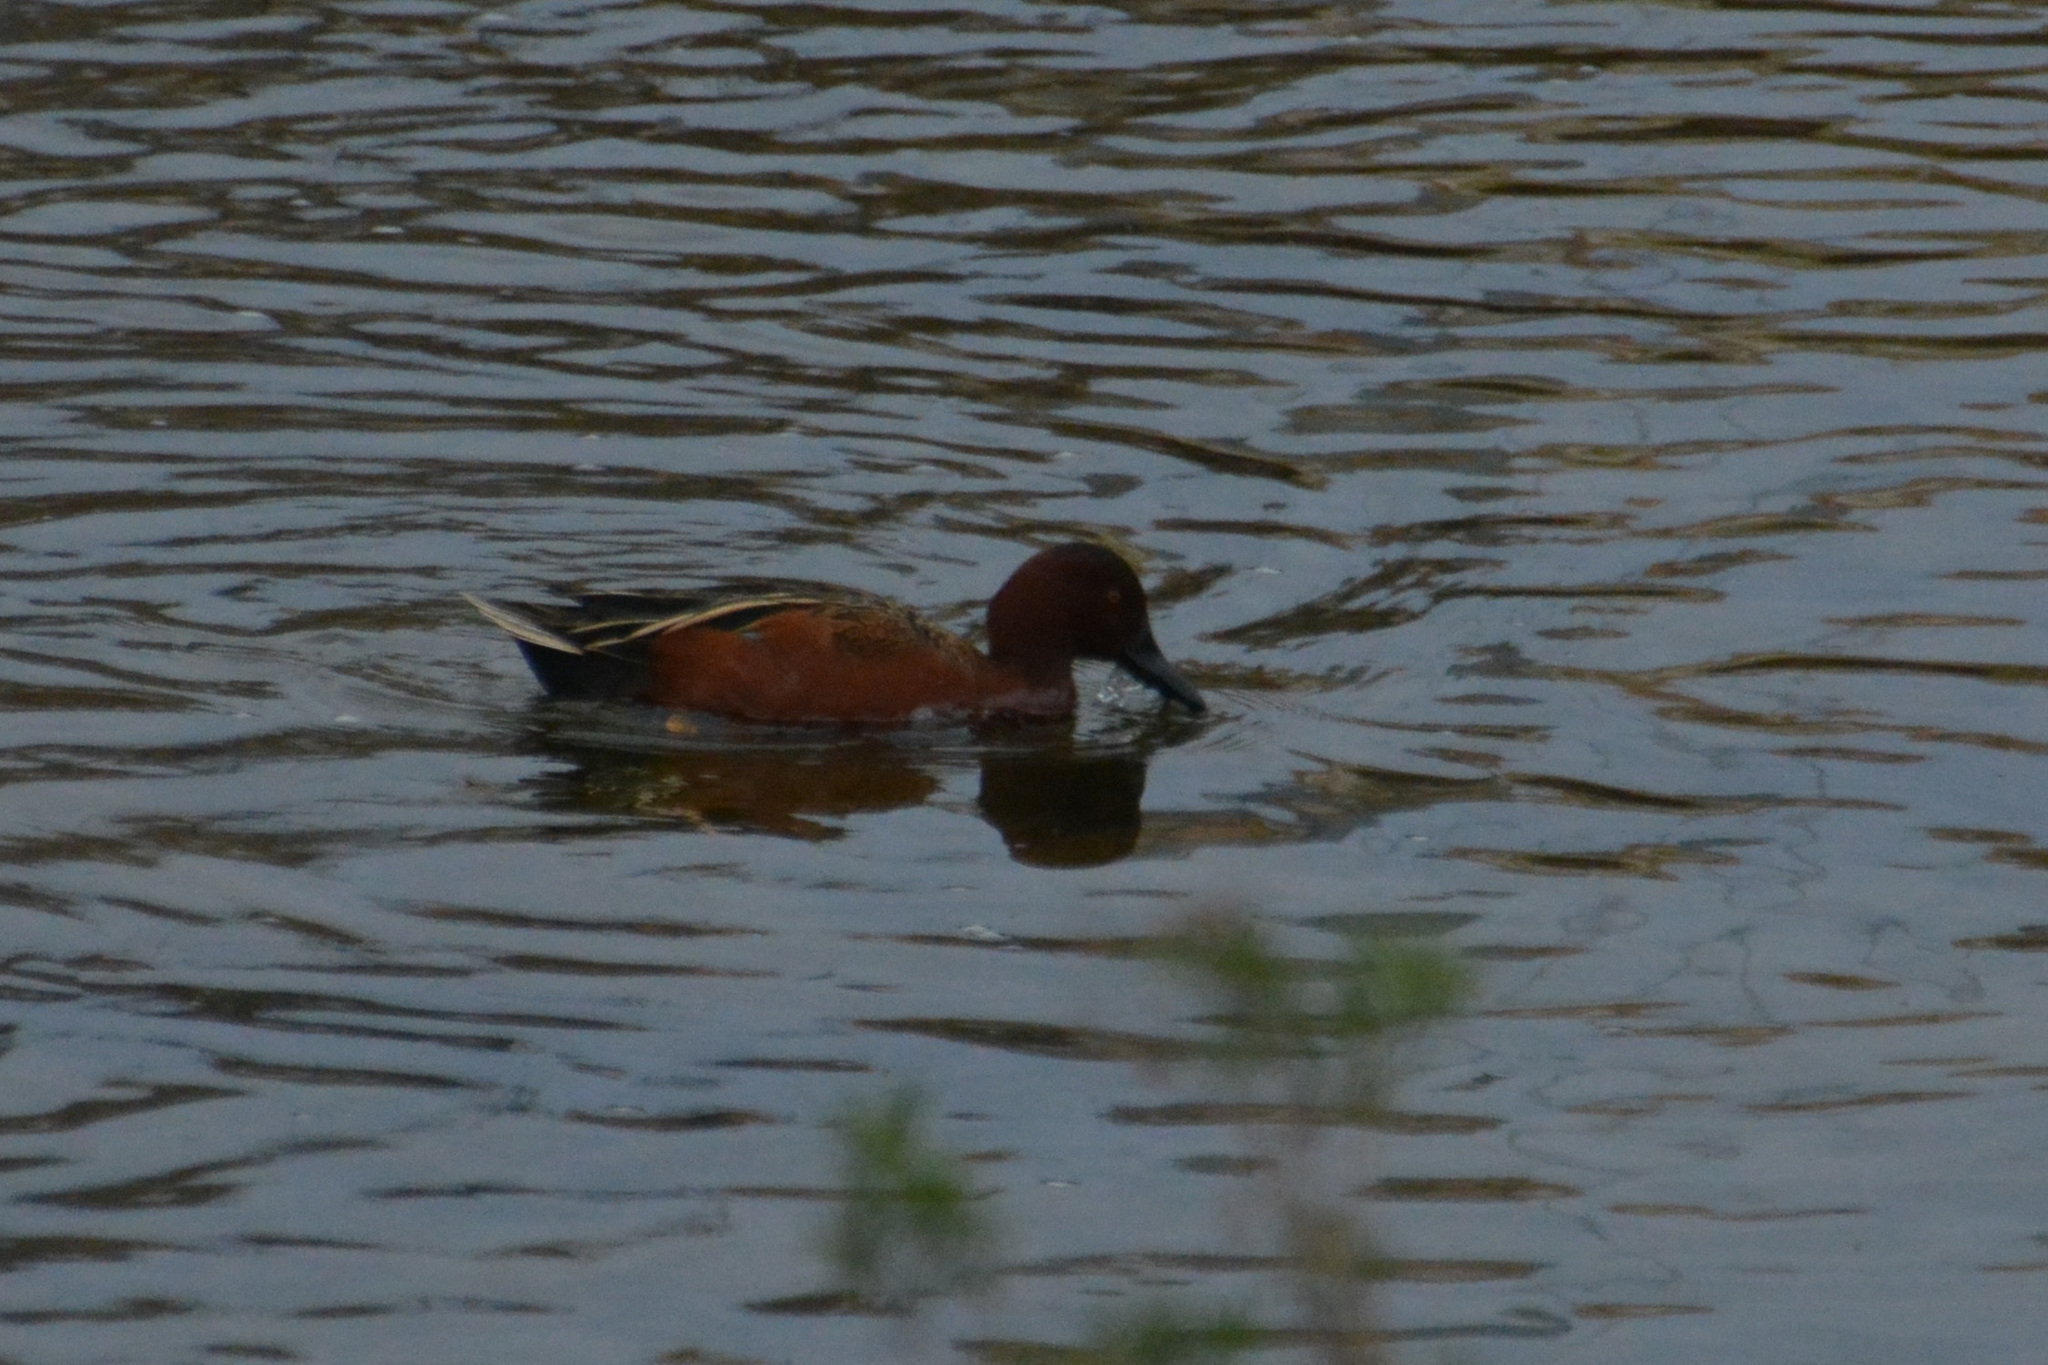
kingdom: Animalia
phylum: Chordata
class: Aves
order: Anseriformes
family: Anatidae
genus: Spatula
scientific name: Spatula cyanoptera
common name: Cinnamon teal
